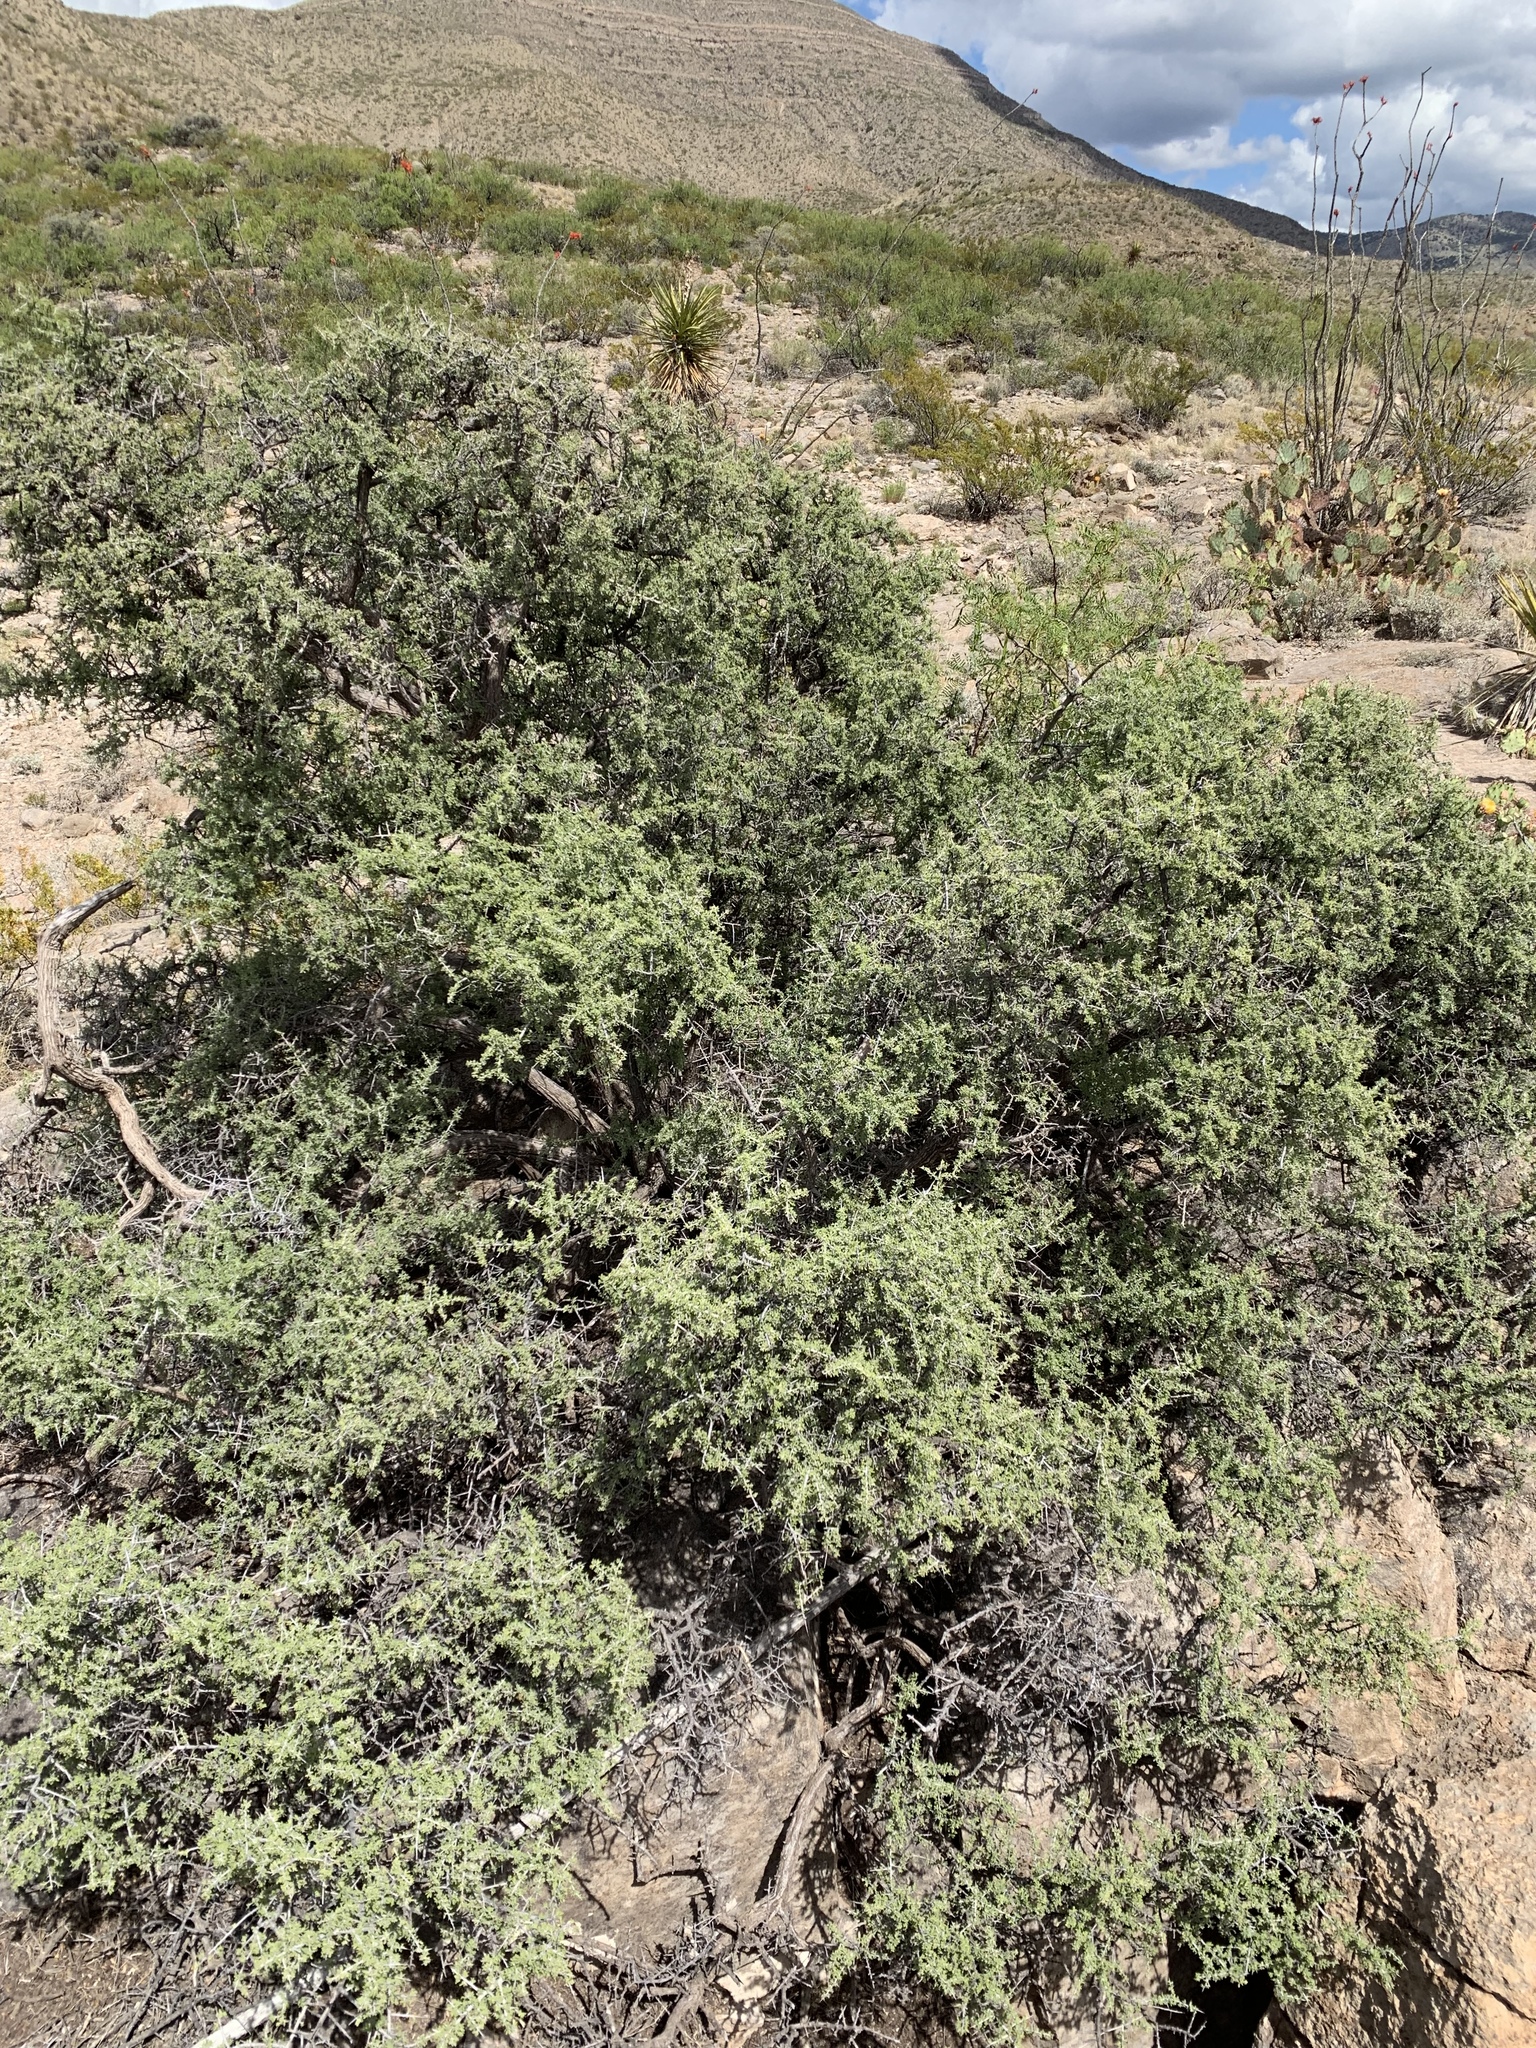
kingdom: Plantae
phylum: Tracheophyta
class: Magnoliopsida
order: Rosales
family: Rhamnaceae
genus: Condalia
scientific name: Condalia warnockii
